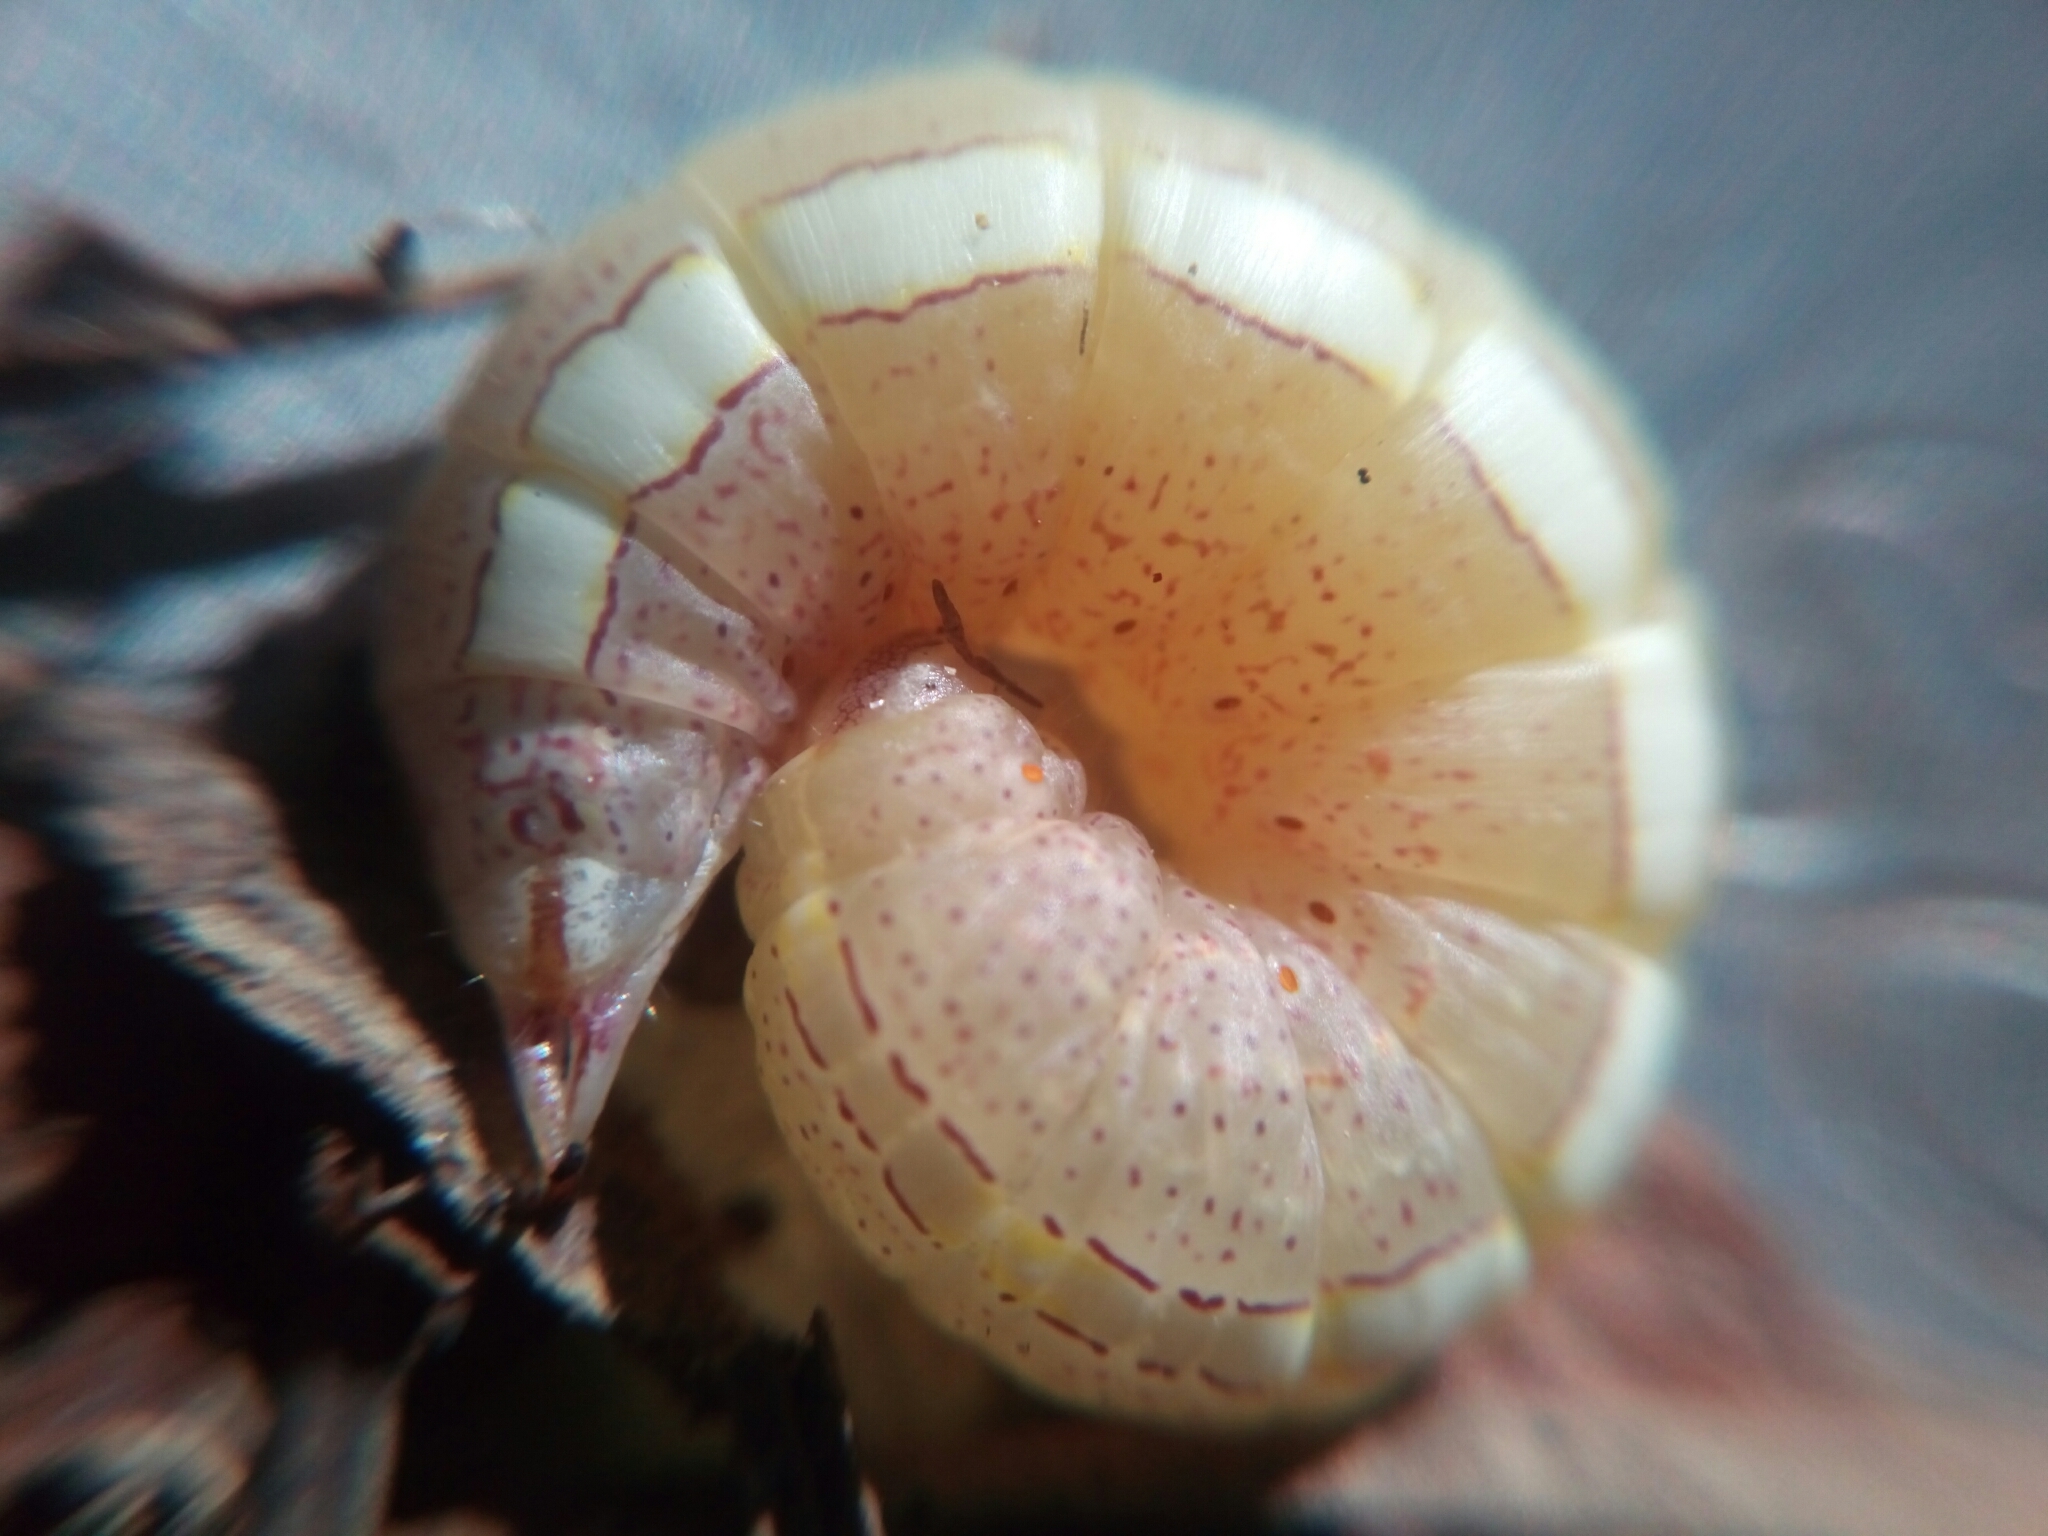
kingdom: Animalia
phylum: Arthropoda
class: Insecta
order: Lepidoptera
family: Notodontidae
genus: Misogada
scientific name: Misogada unicolor
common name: Drab prominent
